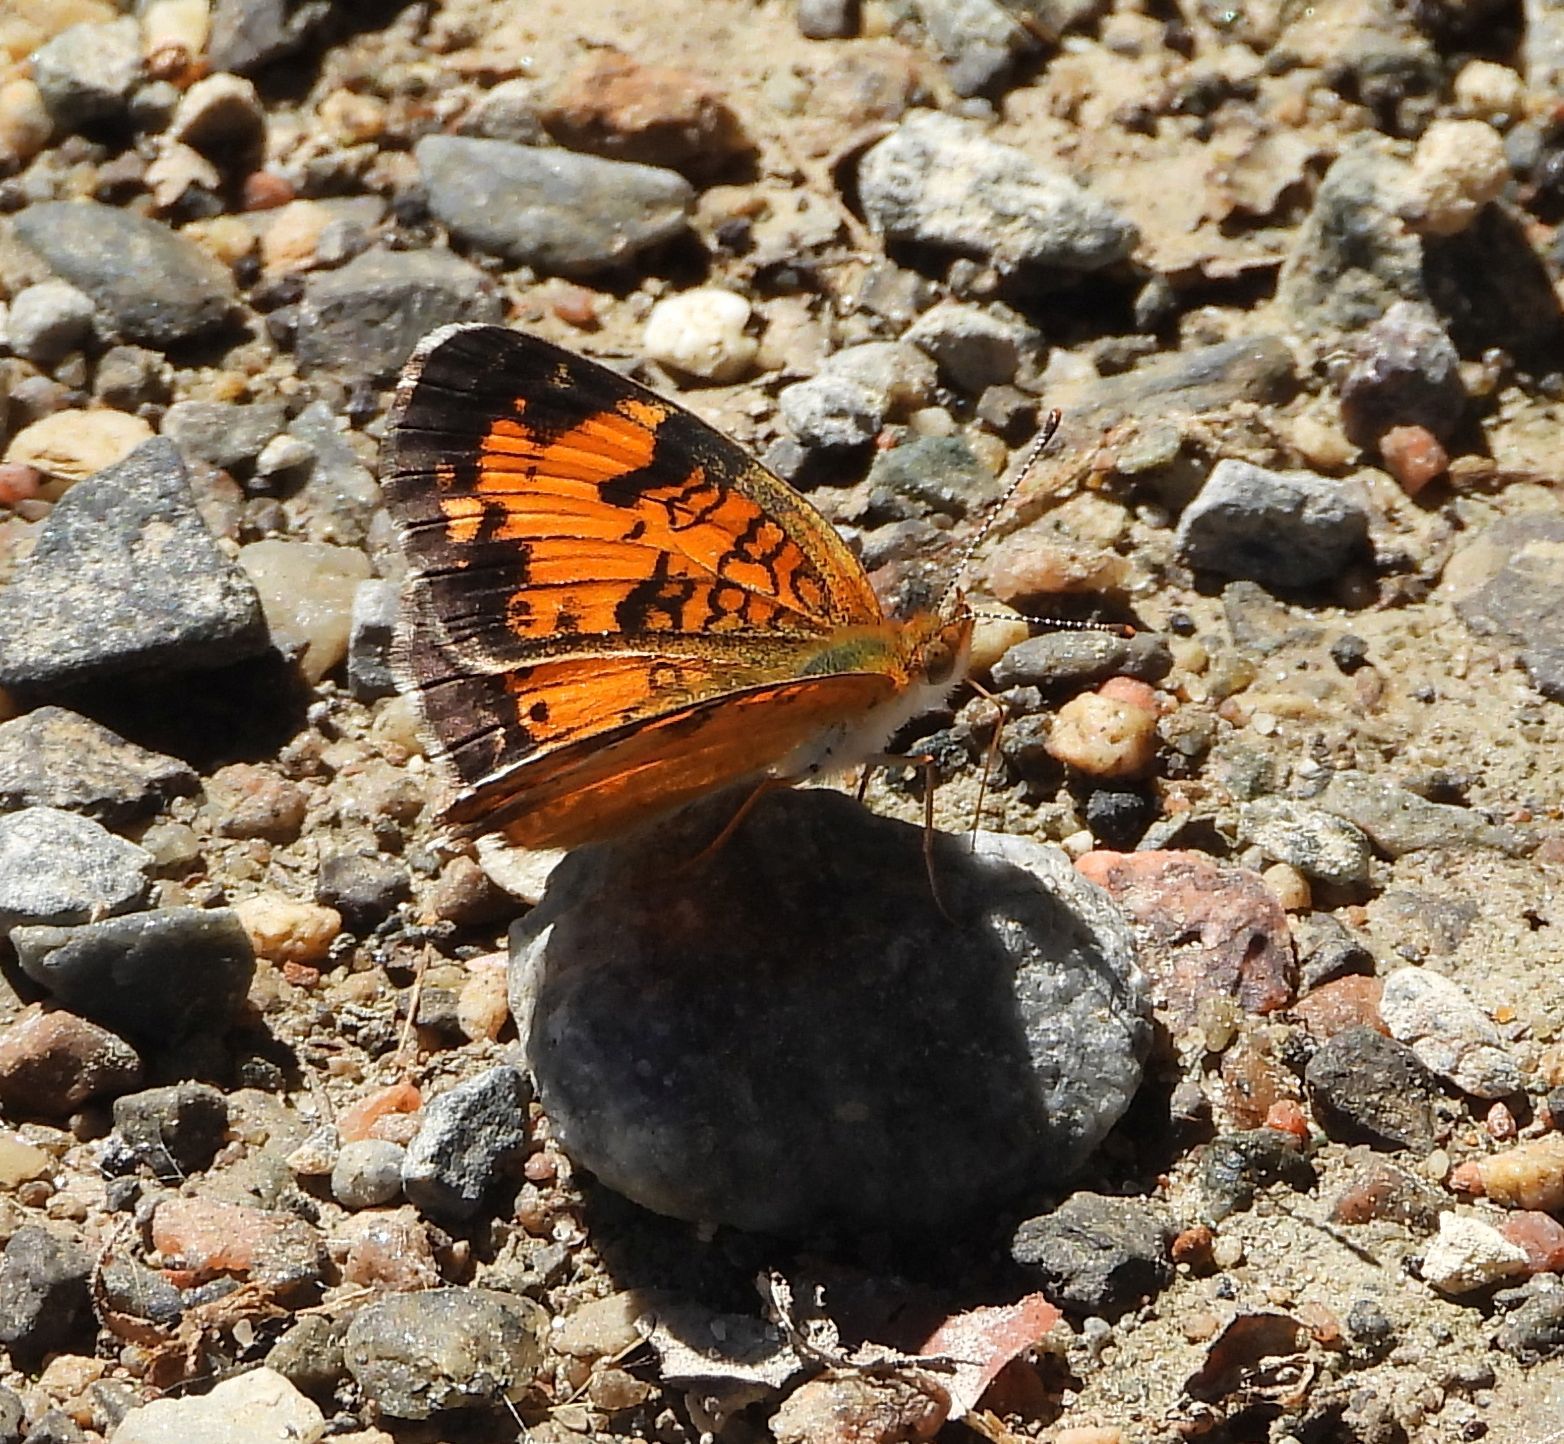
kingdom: Animalia
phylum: Arthropoda
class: Insecta
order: Lepidoptera
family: Nymphalidae
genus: Phyciodes
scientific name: Phyciodes tharos
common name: Pearl crescent
